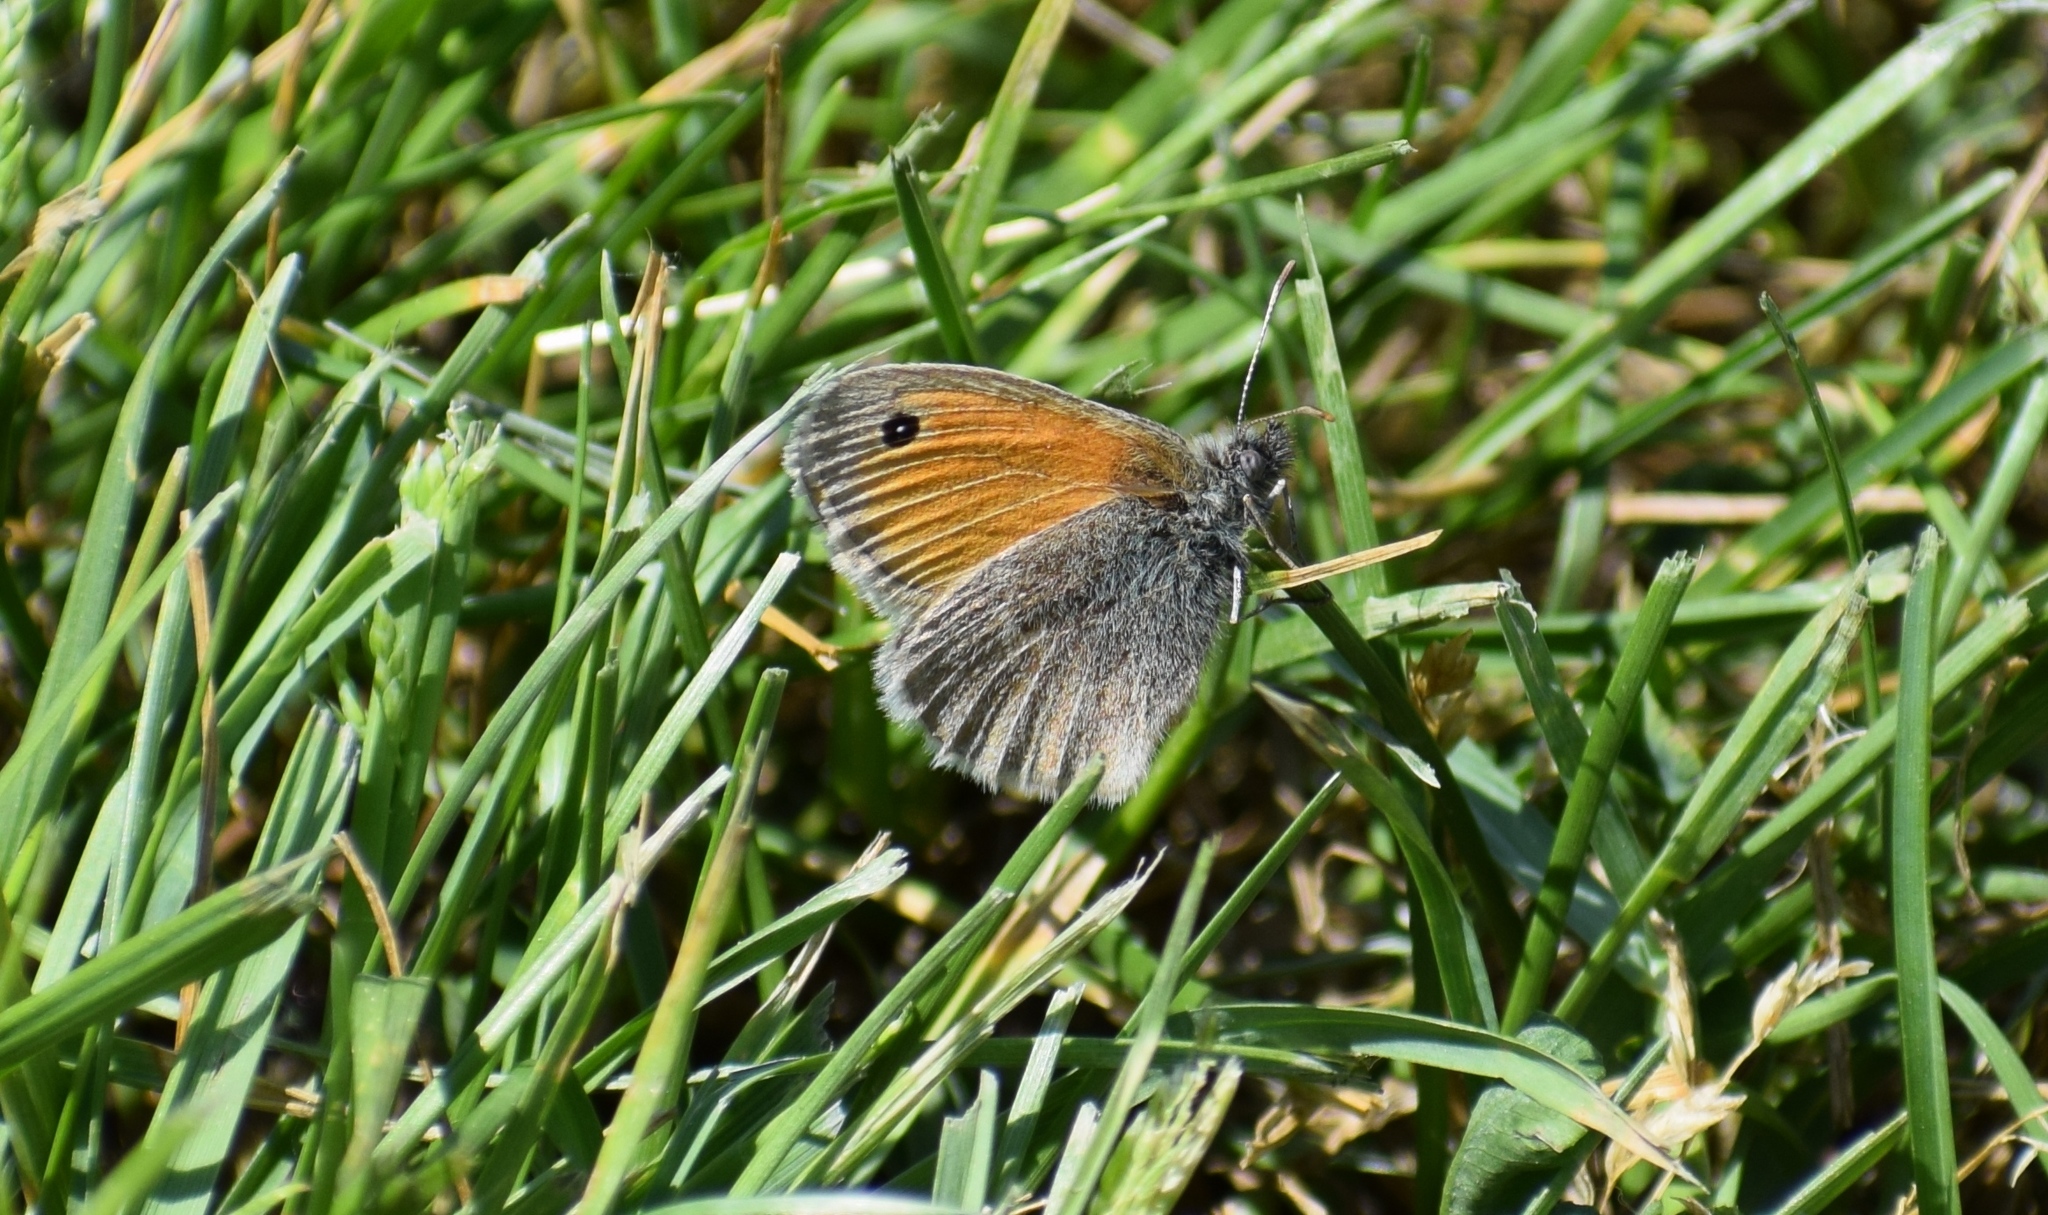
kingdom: Animalia
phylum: Arthropoda
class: Insecta
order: Lepidoptera
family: Nymphalidae
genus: Coenonympha
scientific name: Coenonympha pamphilus
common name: Small heath
